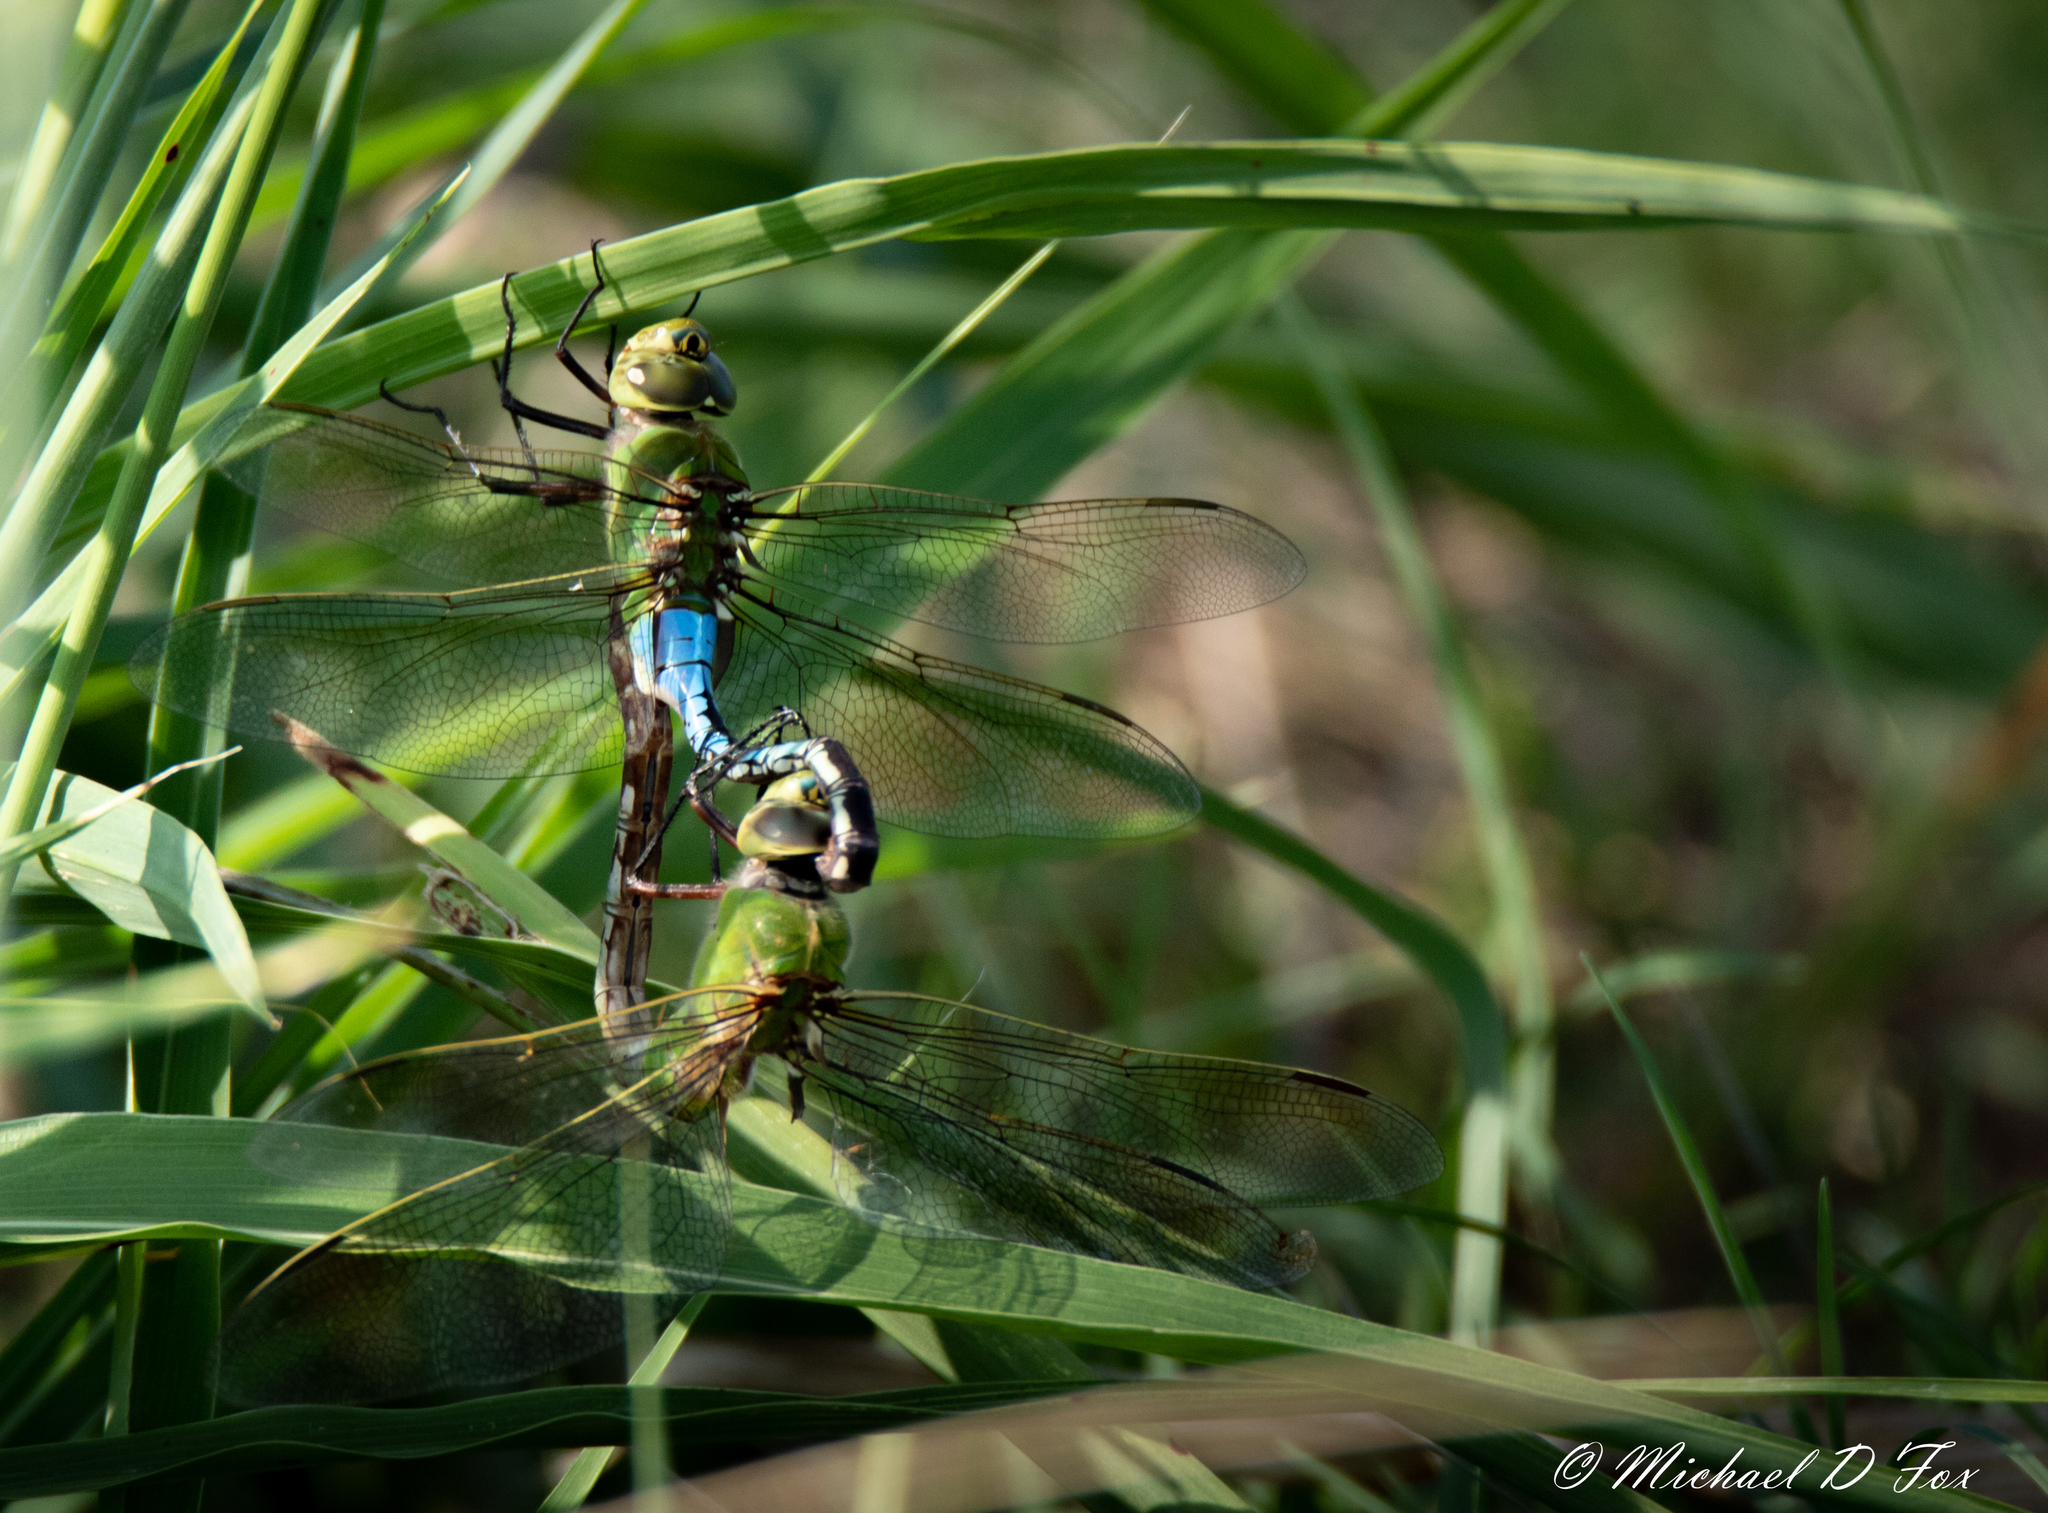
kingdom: Animalia
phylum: Arthropoda
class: Insecta
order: Odonata
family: Aeshnidae
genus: Anax
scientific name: Anax junius
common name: Common green darner
